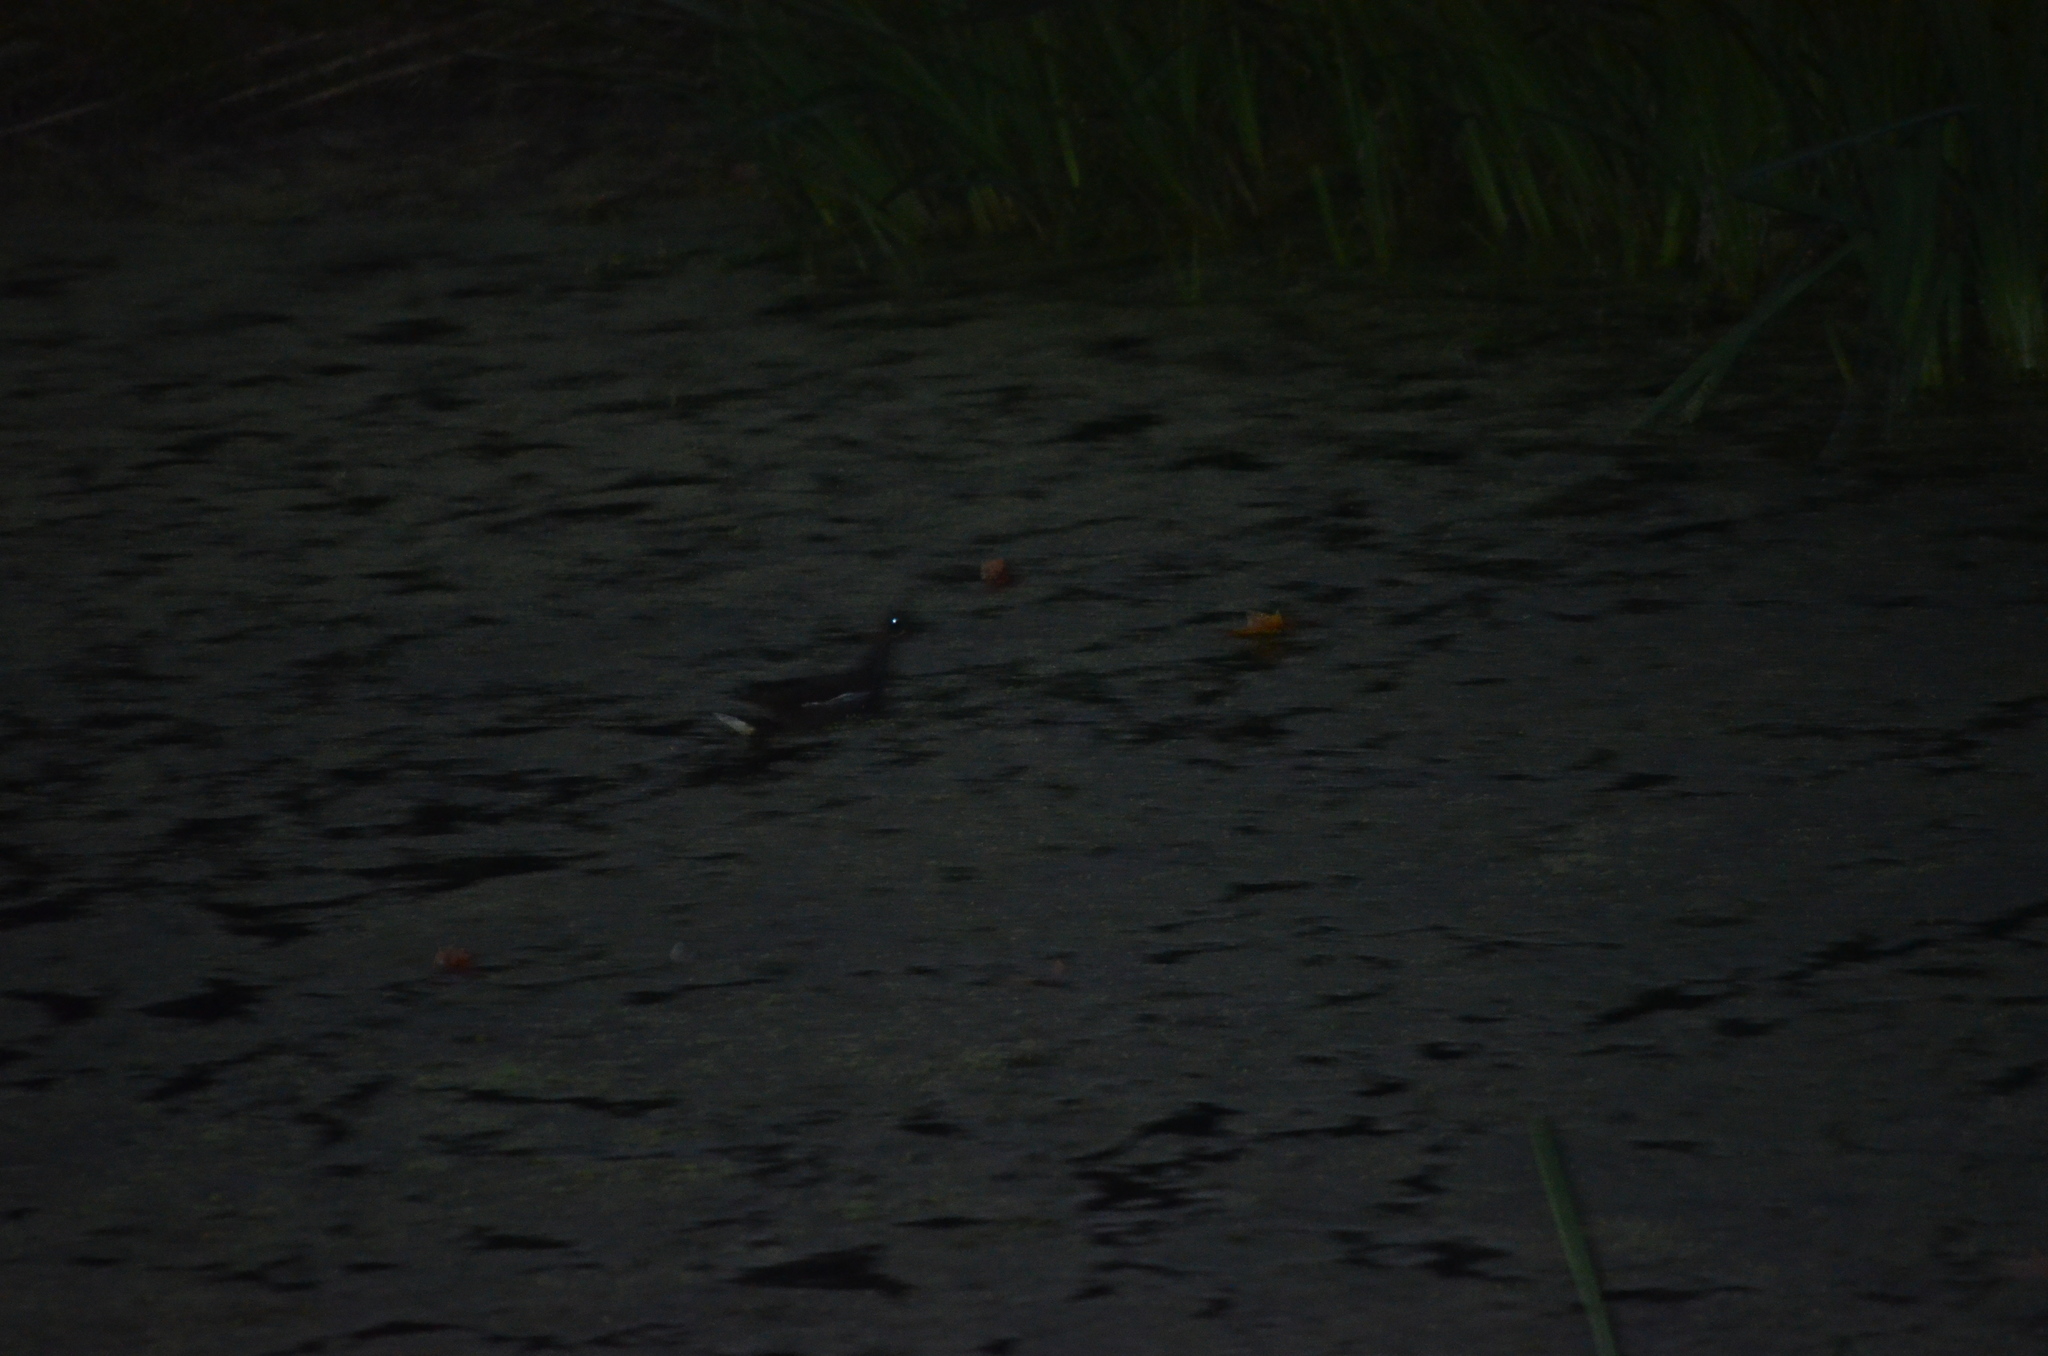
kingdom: Animalia
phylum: Chordata
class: Aves
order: Gruiformes
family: Rallidae
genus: Gallinula
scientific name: Gallinula chloropus
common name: Common moorhen
